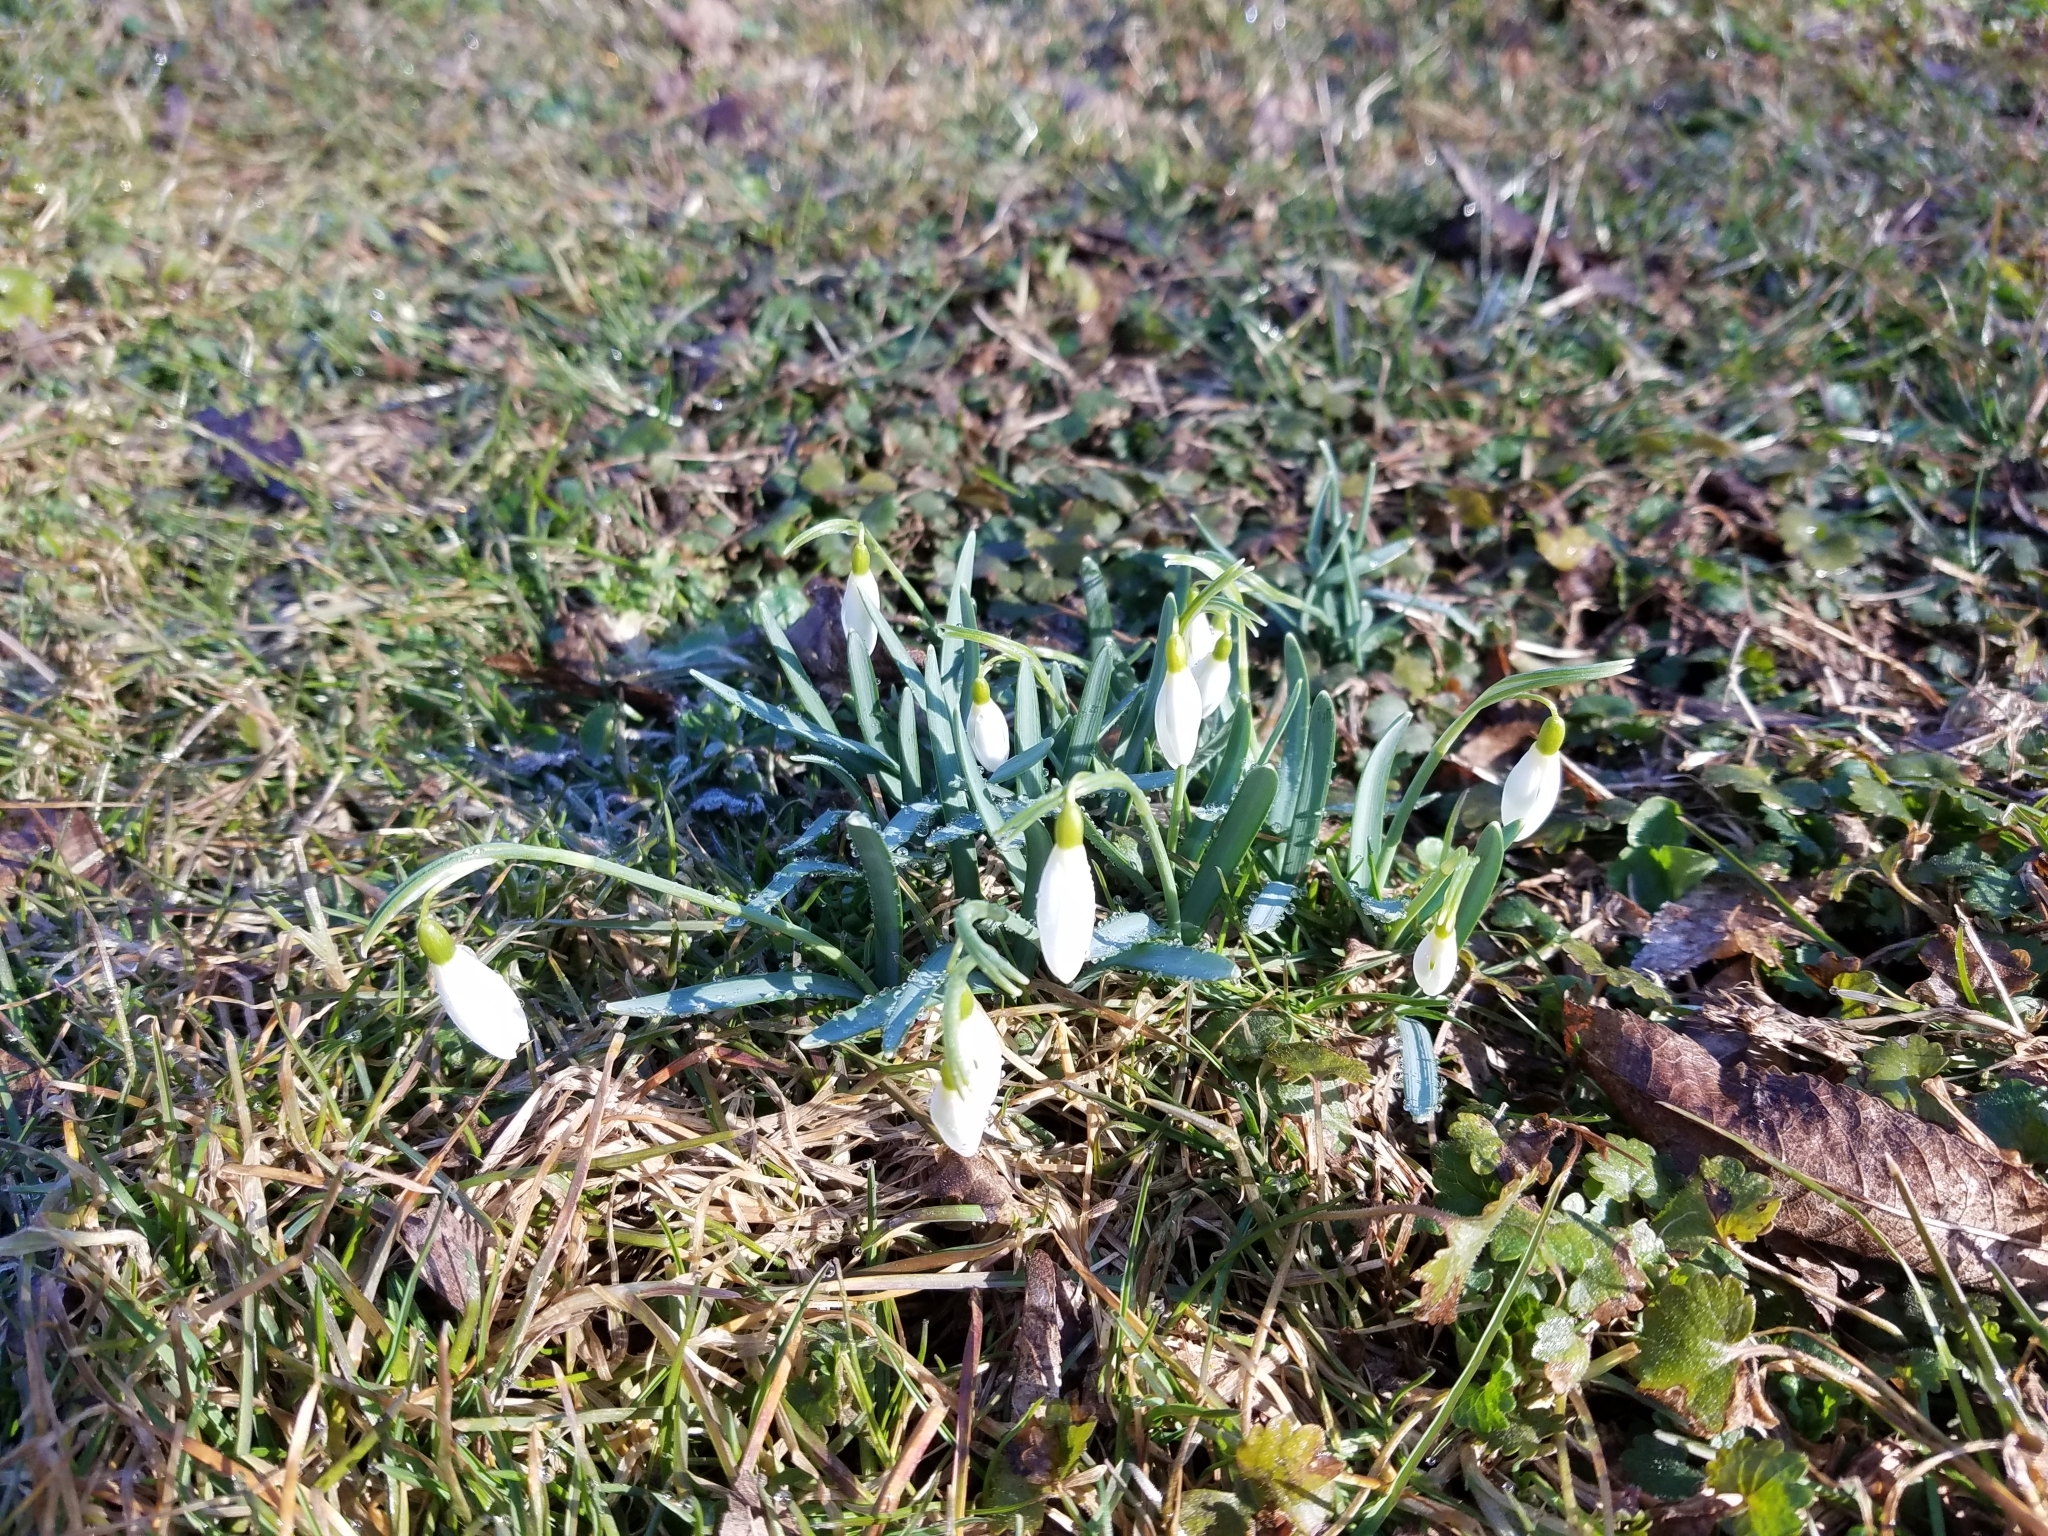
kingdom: Plantae
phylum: Tracheophyta
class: Liliopsida
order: Asparagales
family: Amaryllidaceae
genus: Galanthus
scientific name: Galanthus nivalis
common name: Snowdrop
